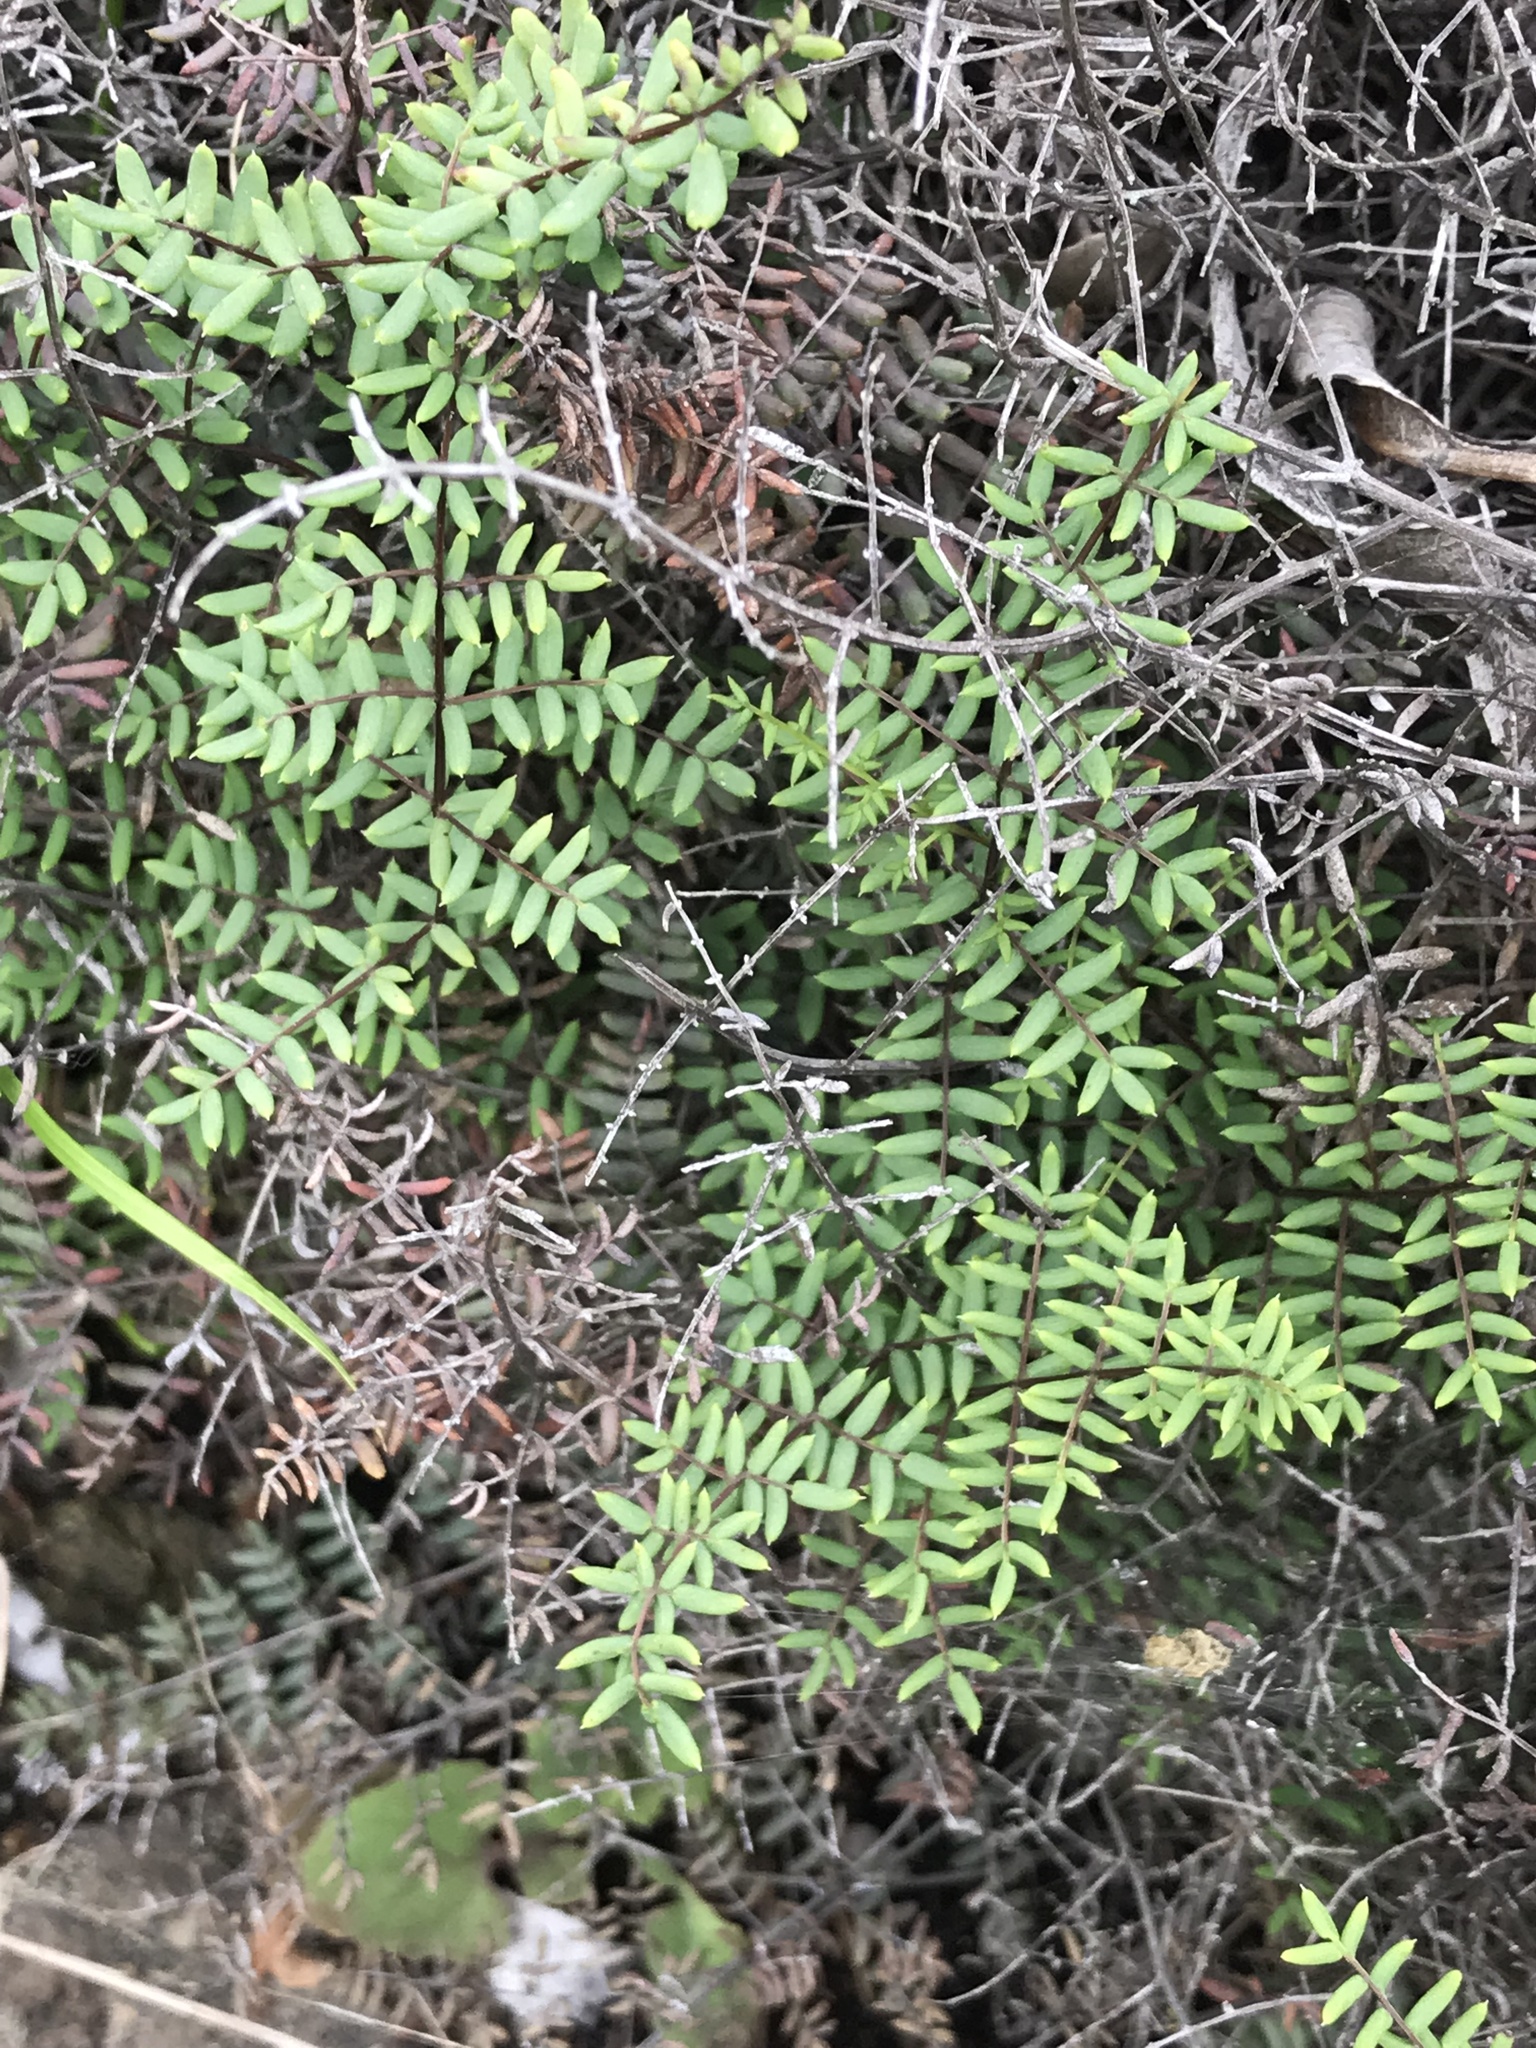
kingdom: Plantae
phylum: Tracheophyta
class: Polypodiopsida
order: Polypodiales
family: Pteridaceae
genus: Pellaea
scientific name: Pellaea mucronata
